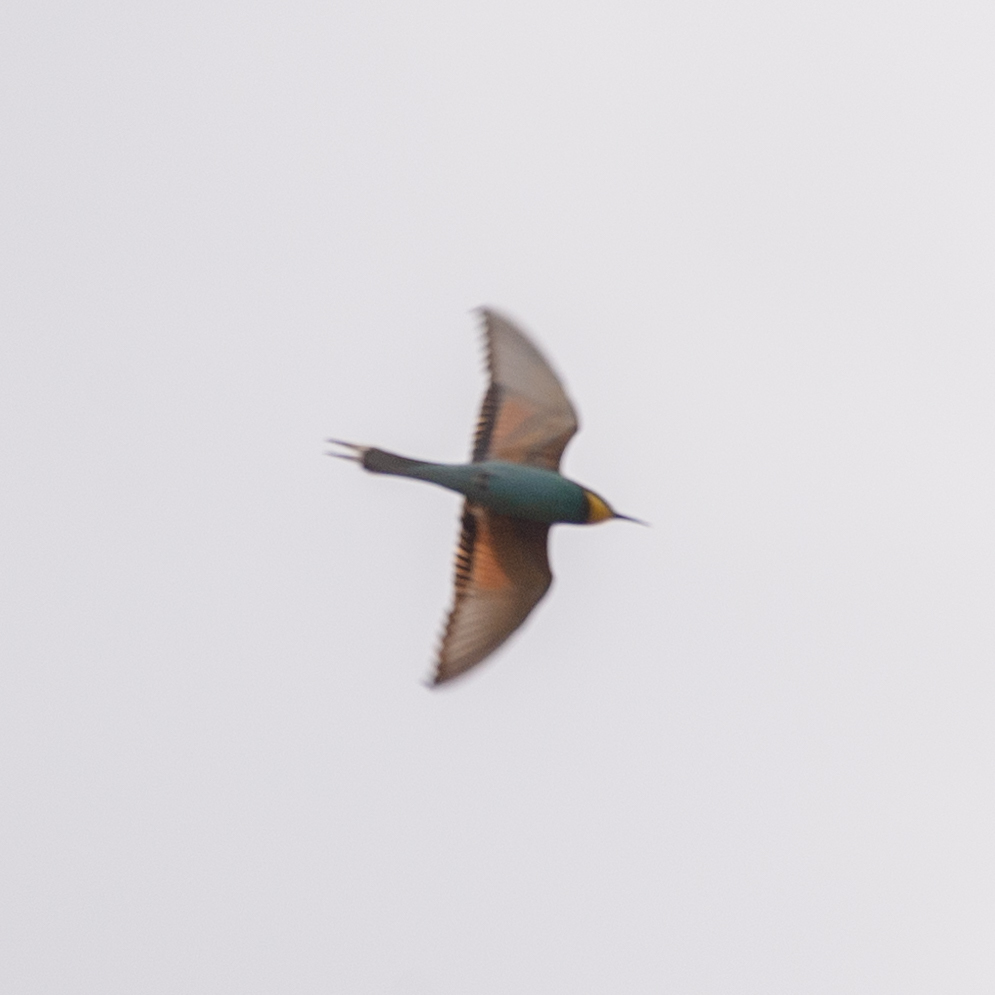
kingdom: Animalia
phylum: Chordata
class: Aves
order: Coraciiformes
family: Meropidae
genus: Merops
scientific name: Merops apiaster
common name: European bee-eater
